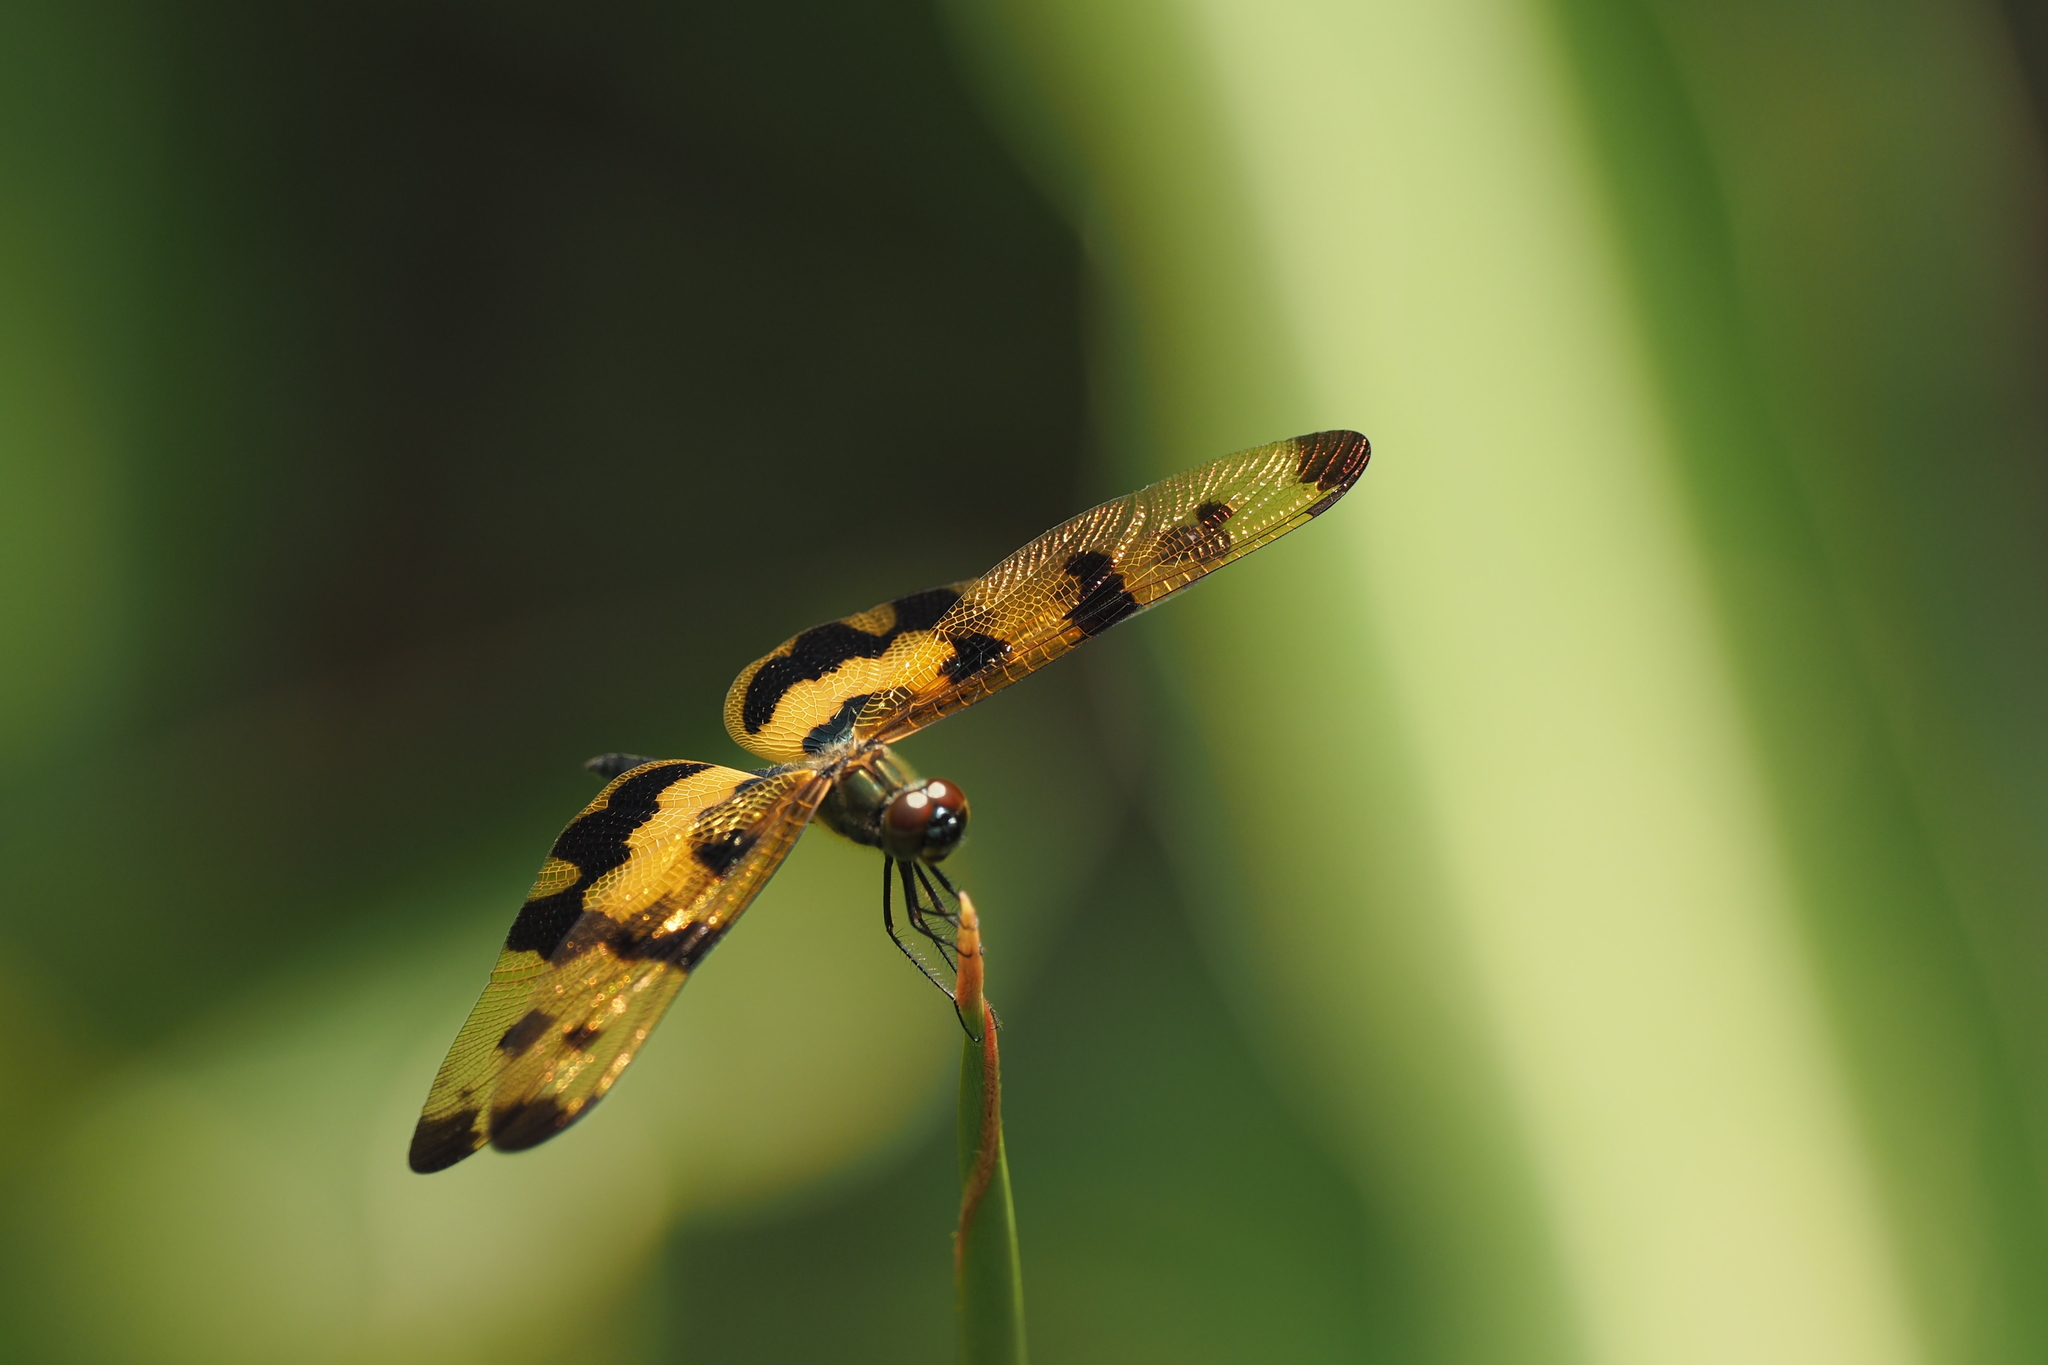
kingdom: Animalia
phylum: Arthropoda
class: Insecta
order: Odonata
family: Libellulidae
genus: Rhyothemis
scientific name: Rhyothemis variegata
